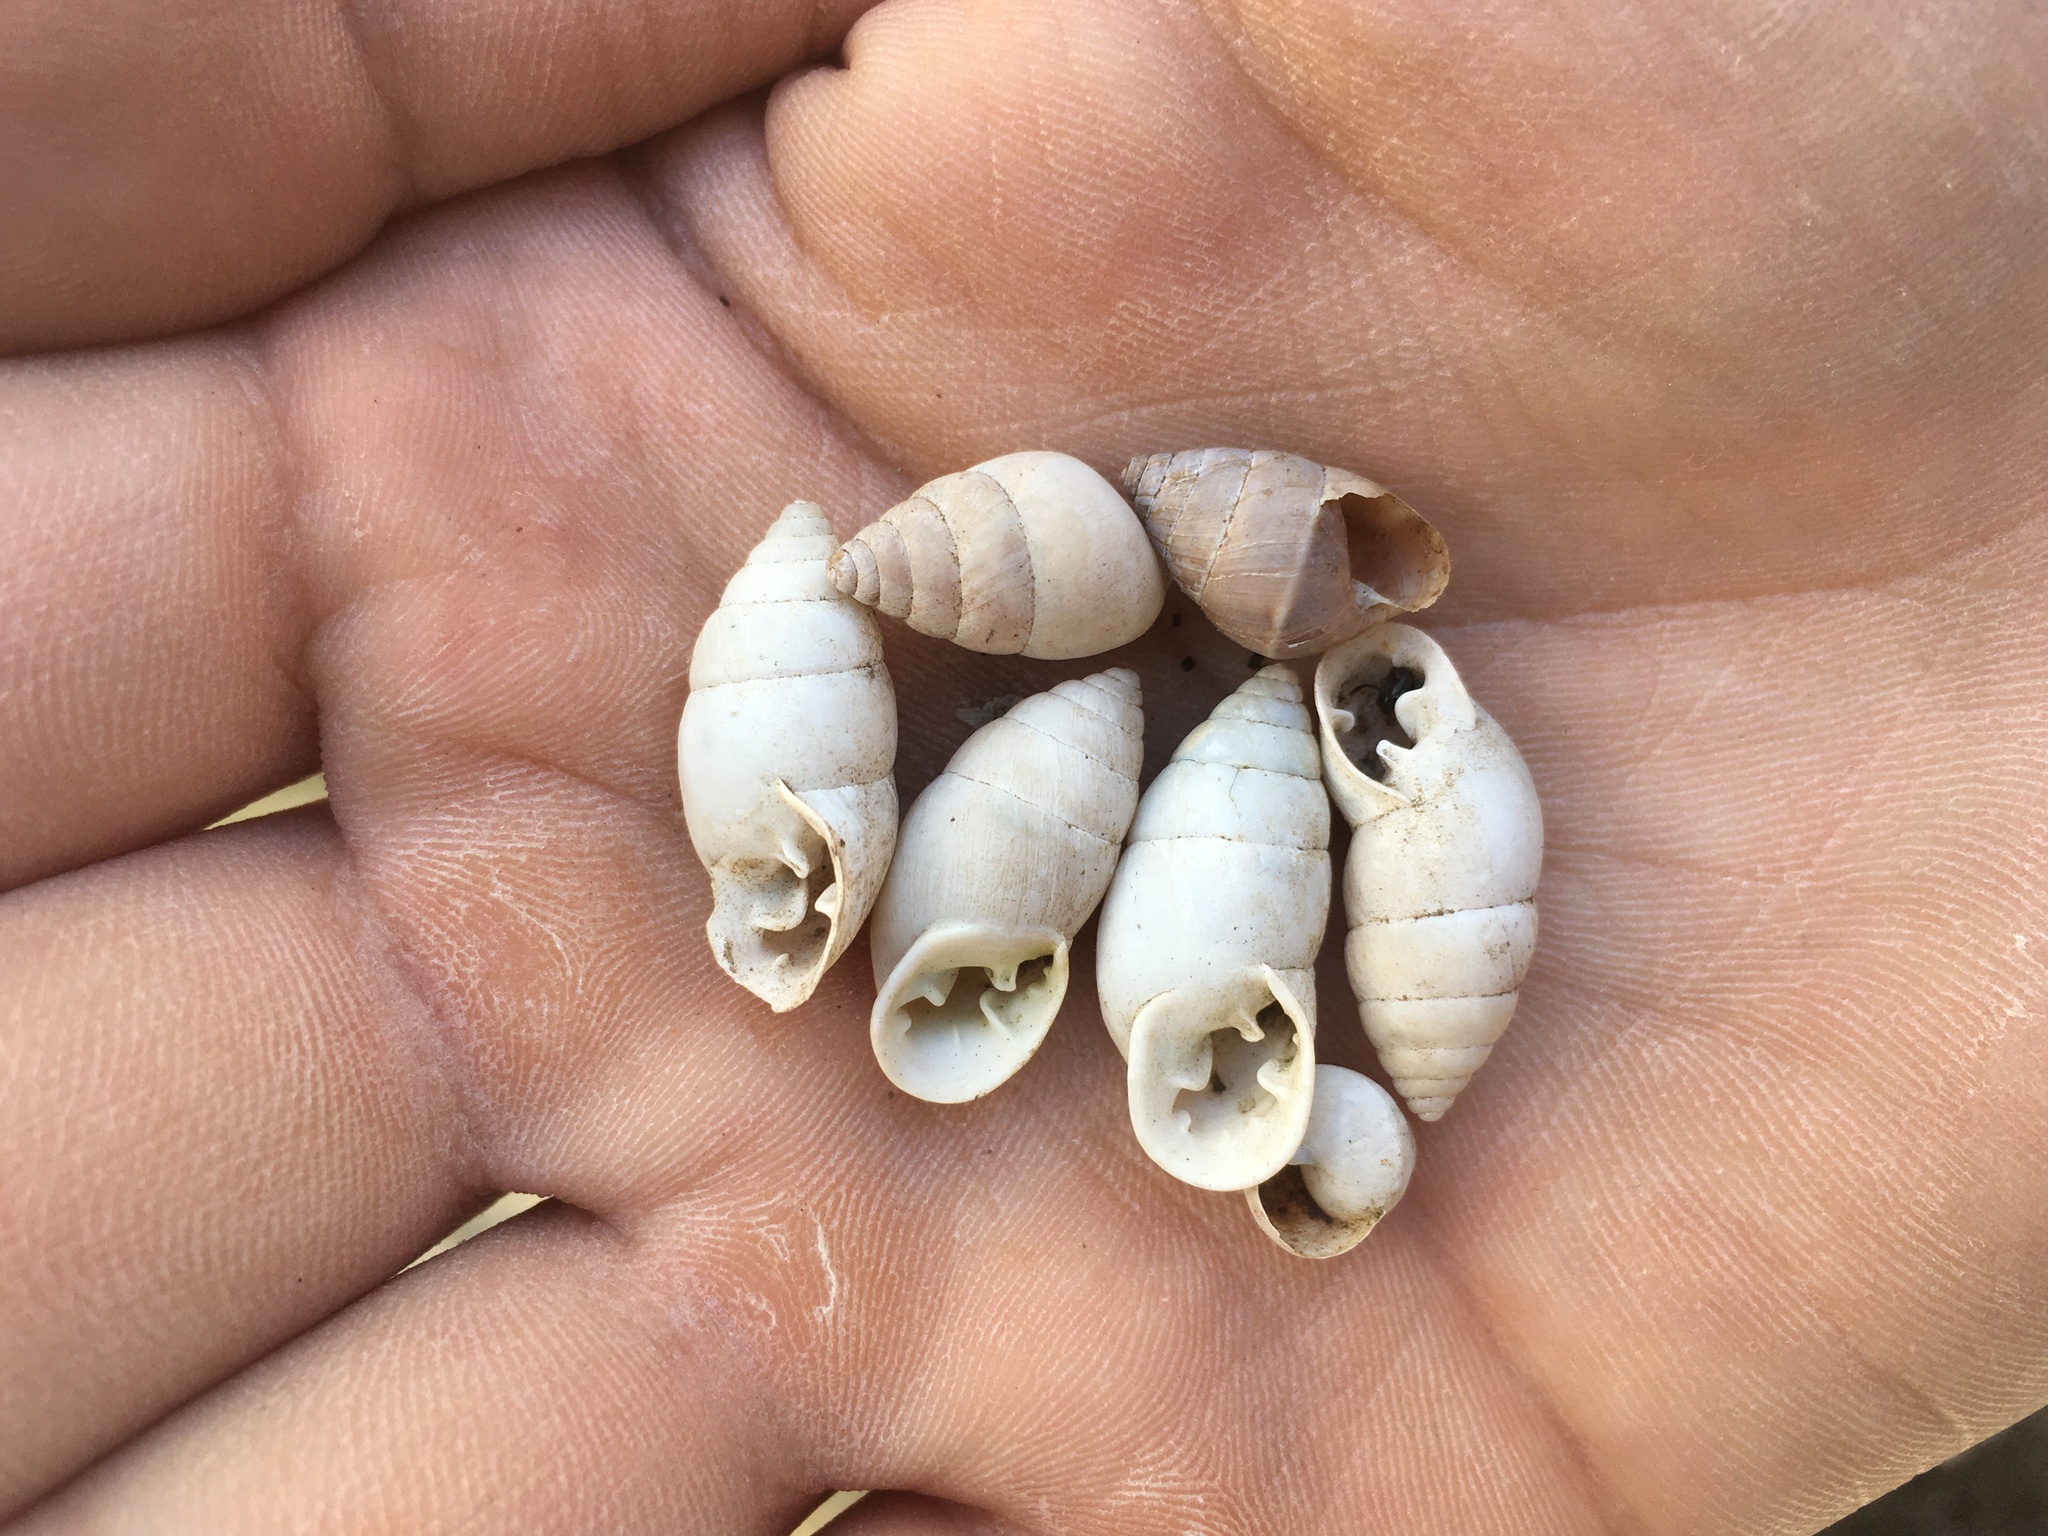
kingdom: Animalia
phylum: Mollusca
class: Gastropoda
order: Stylommatophora
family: Odontostomidae
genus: Plagiodontes
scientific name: Plagiodontes patagonicus
